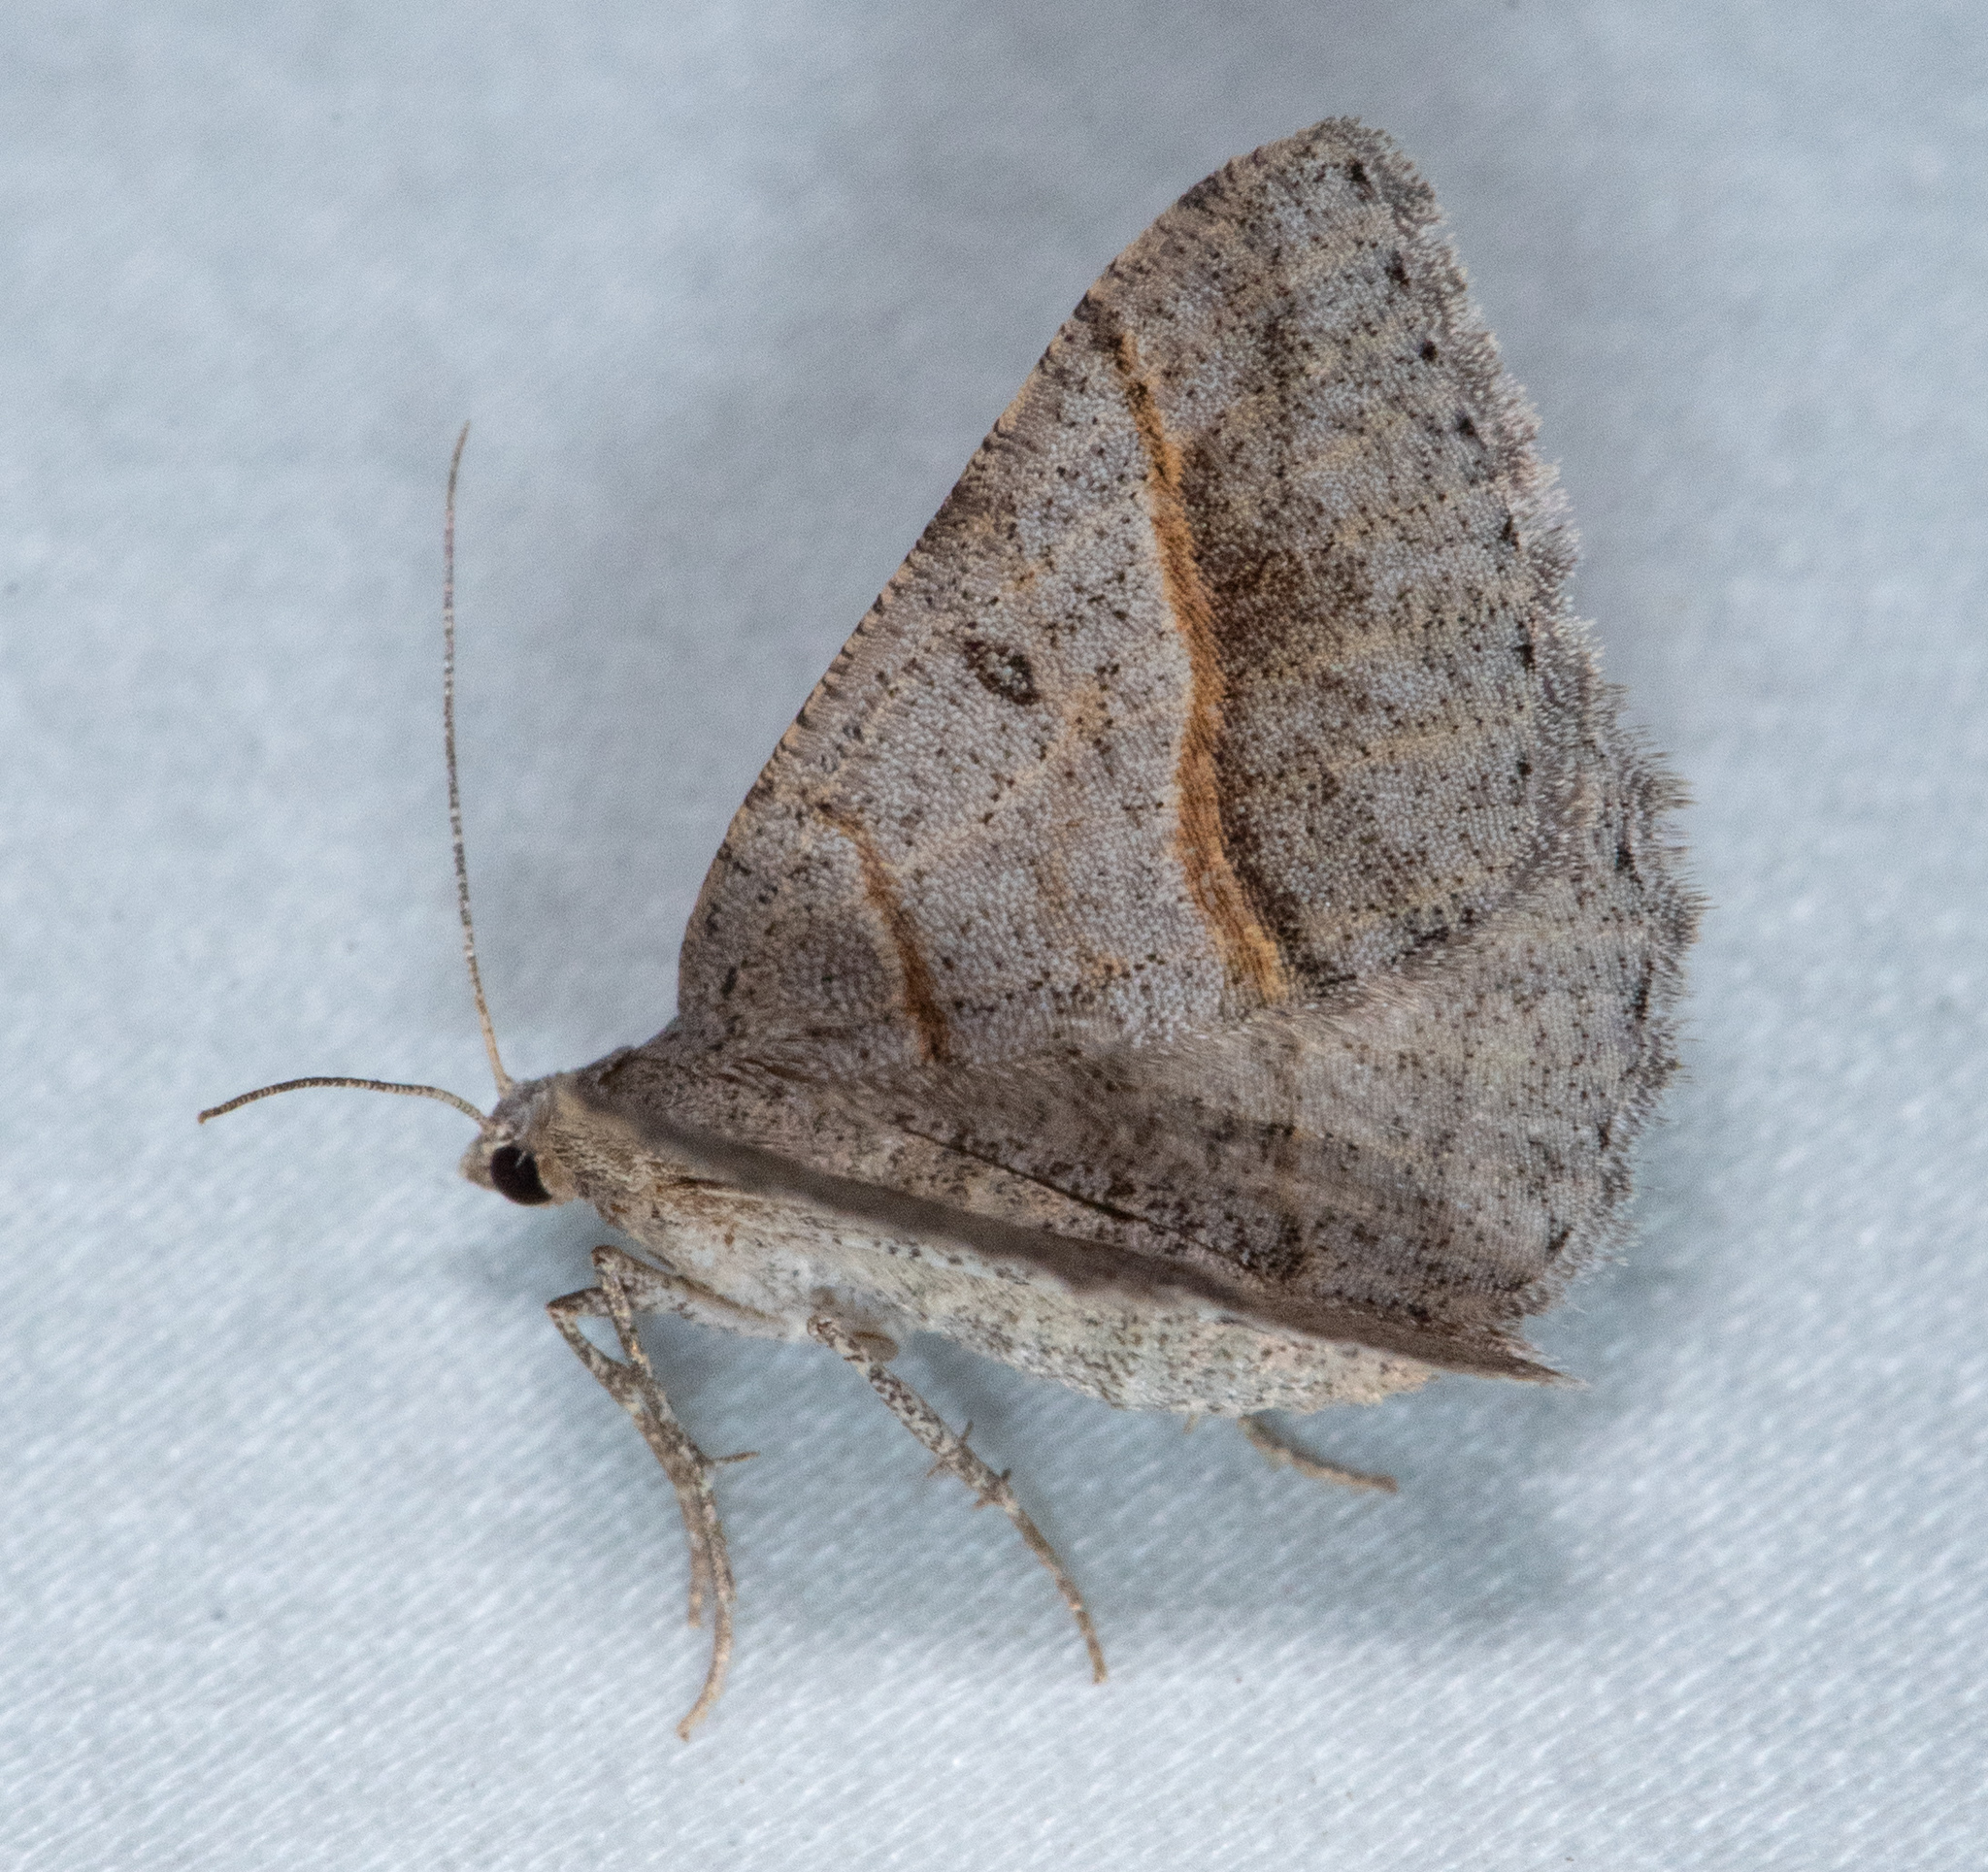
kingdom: Animalia
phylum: Arthropoda
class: Insecta
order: Lepidoptera
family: Geometridae
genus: Digrammia
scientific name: Digrammia neptaria
